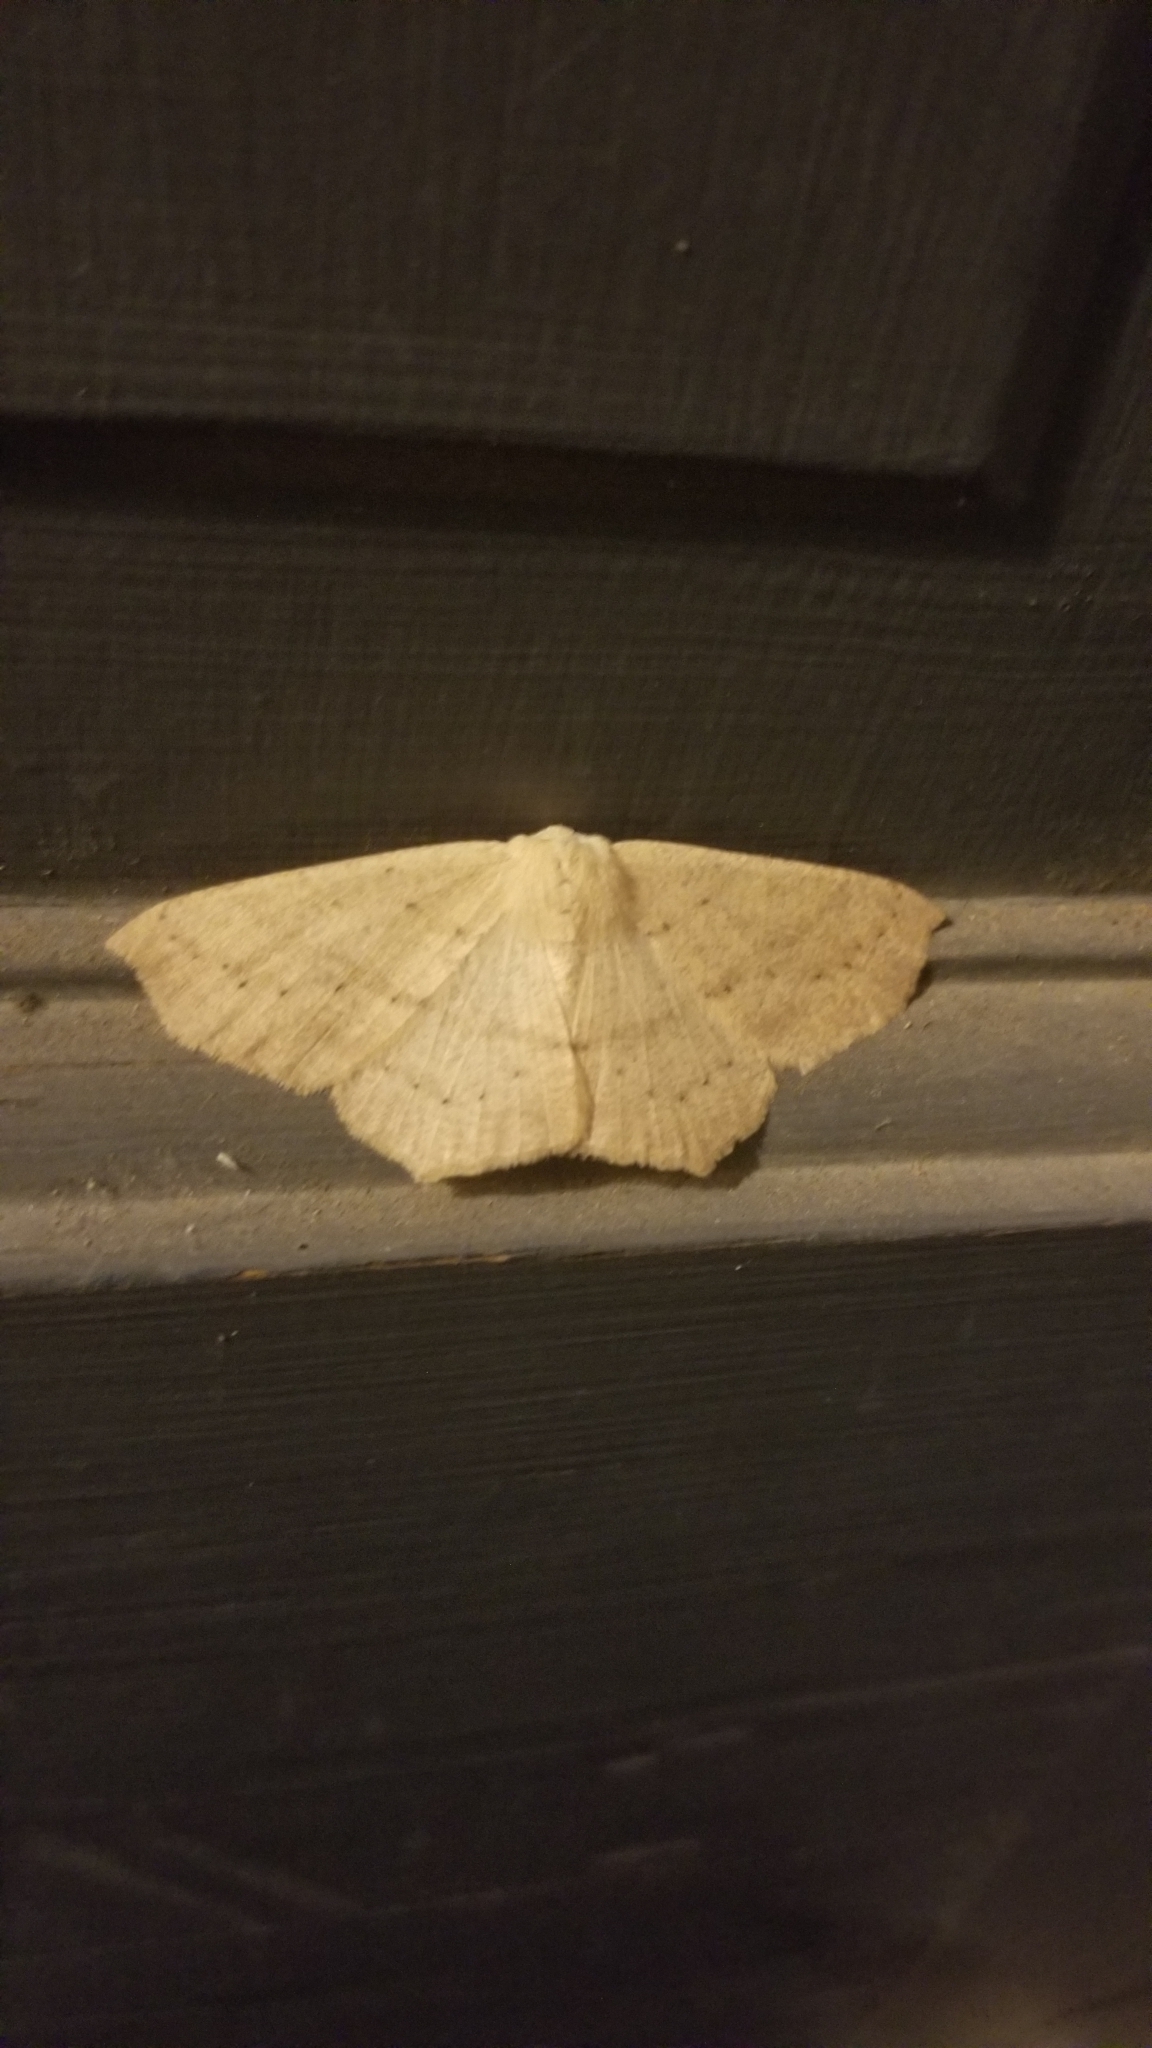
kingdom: Animalia
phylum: Arthropoda
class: Insecta
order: Lepidoptera
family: Geometridae
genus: Sabulodes
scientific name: Sabulodes aegrotata
